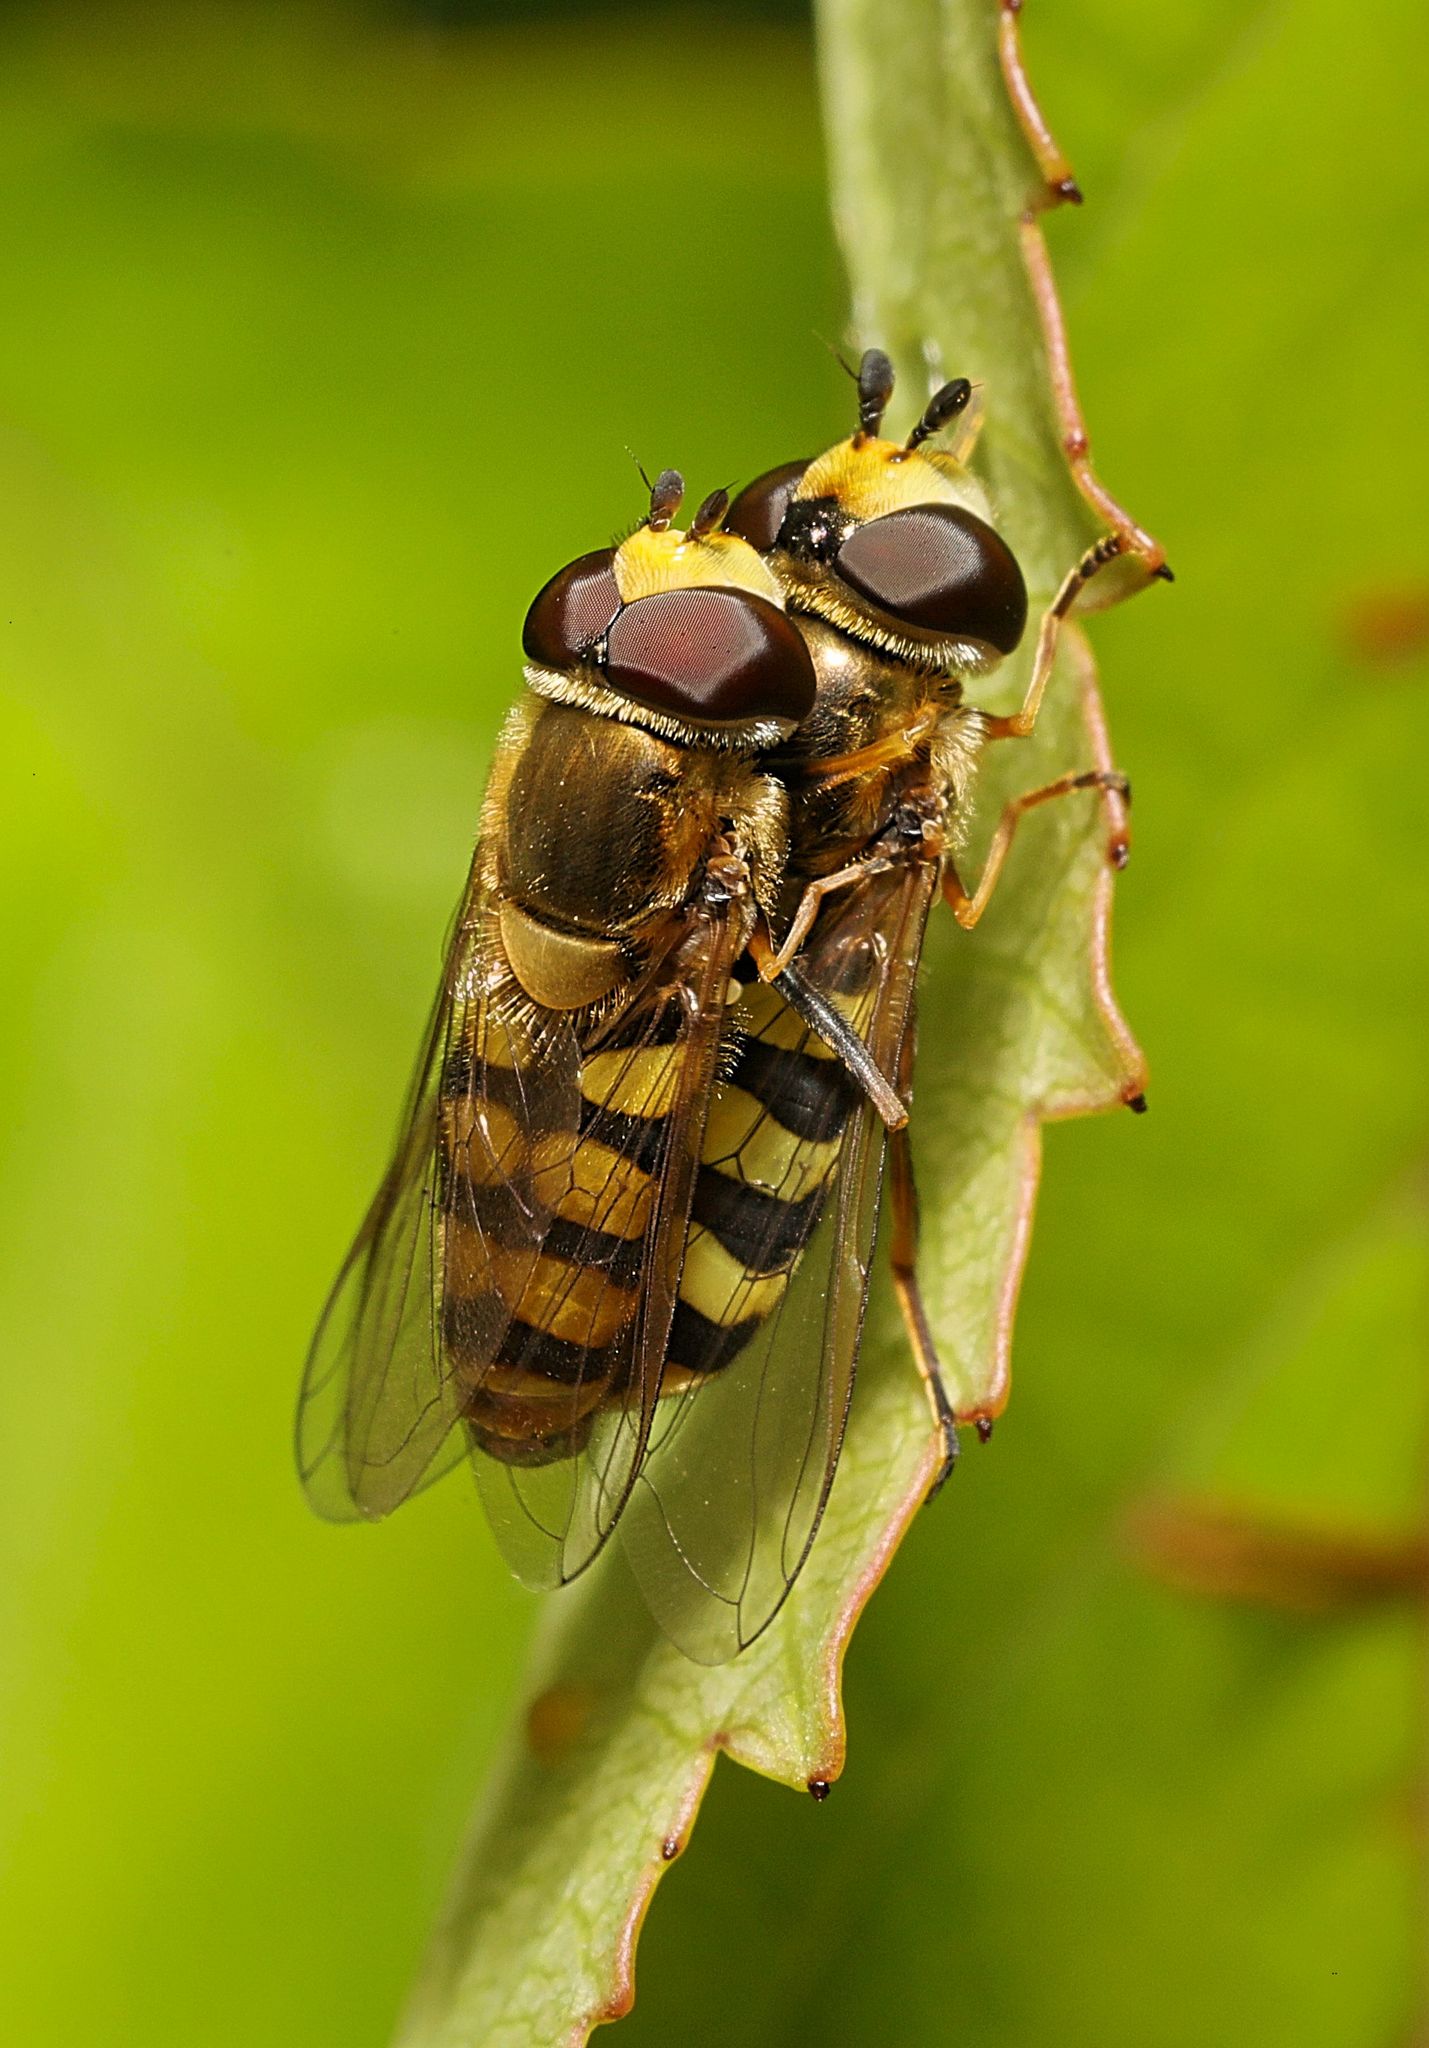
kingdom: Animalia
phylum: Arthropoda
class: Insecta
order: Diptera
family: Syrphidae
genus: Eupeodes
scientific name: Eupeodes corollae
